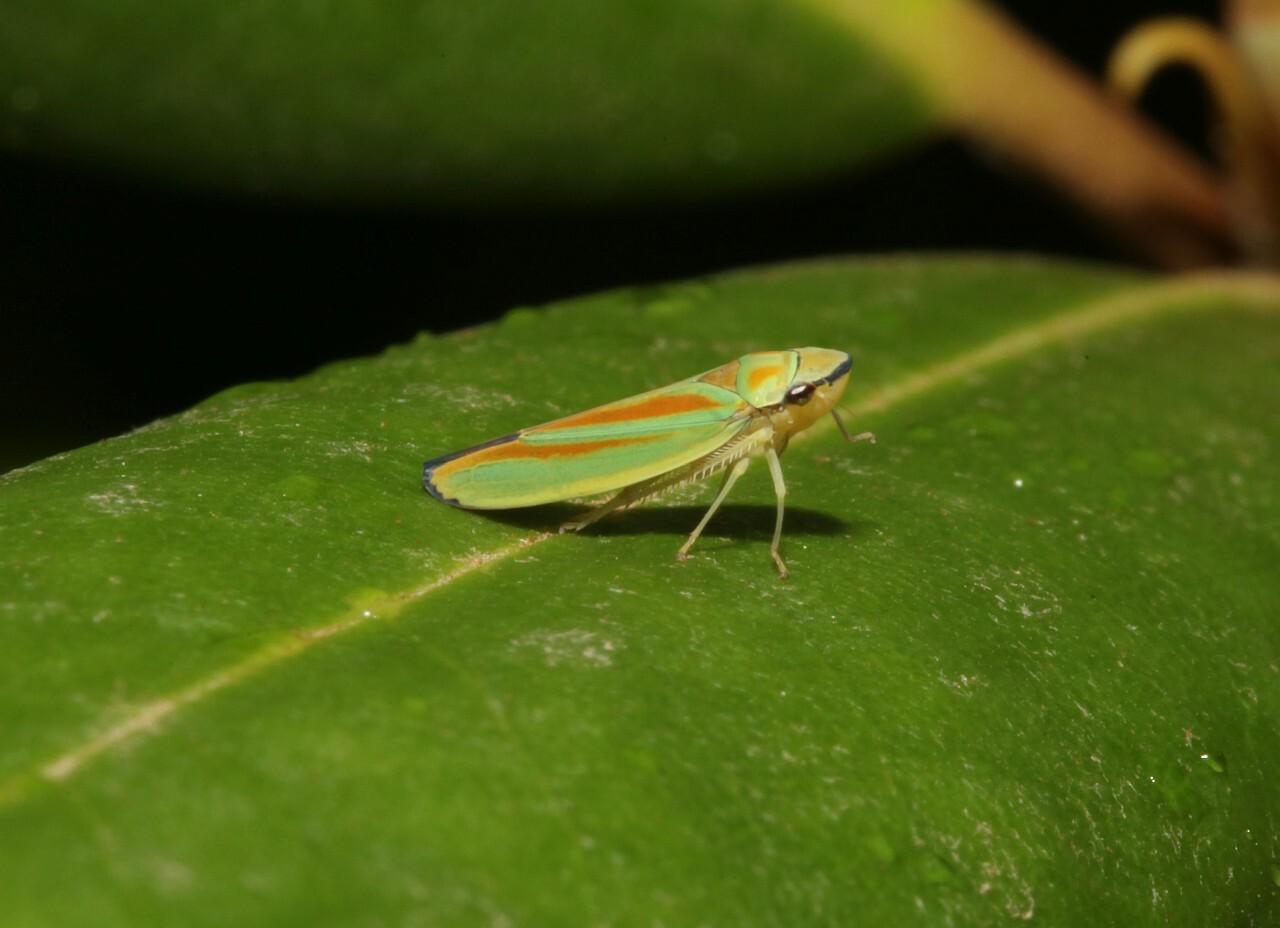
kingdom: Animalia
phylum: Arthropoda
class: Insecta
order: Hemiptera
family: Cicadellidae
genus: Graphocephala
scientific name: Graphocephala fennahi
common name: Rhododendron leafhopper
